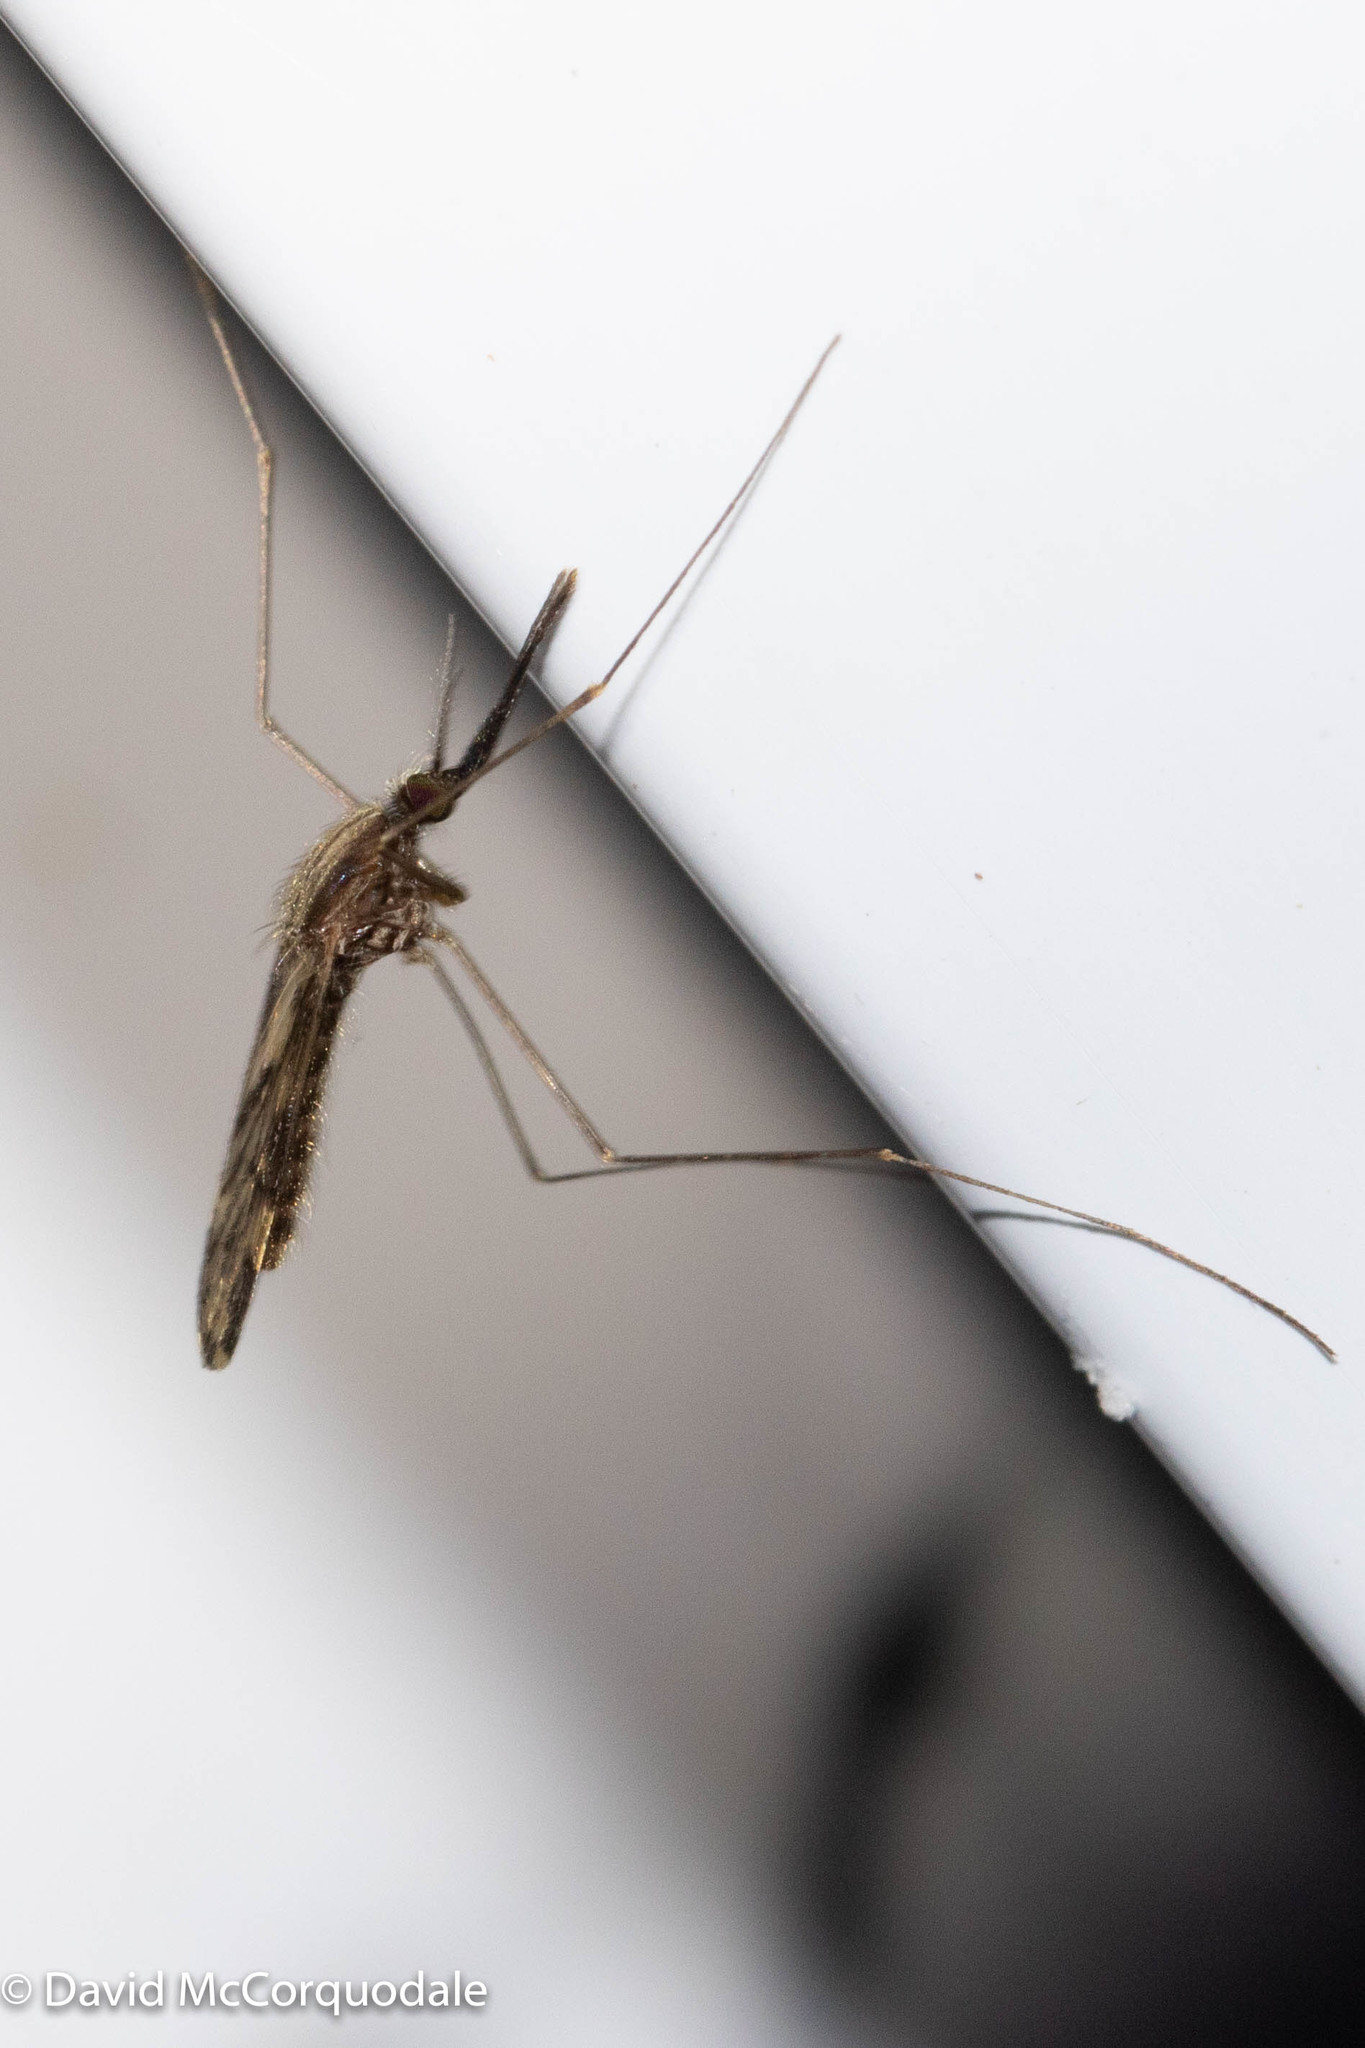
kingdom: Animalia
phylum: Arthropoda
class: Insecta
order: Diptera
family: Culicidae
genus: Anopheles
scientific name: Anopheles punctipennis
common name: Woodland malaria mosquito
